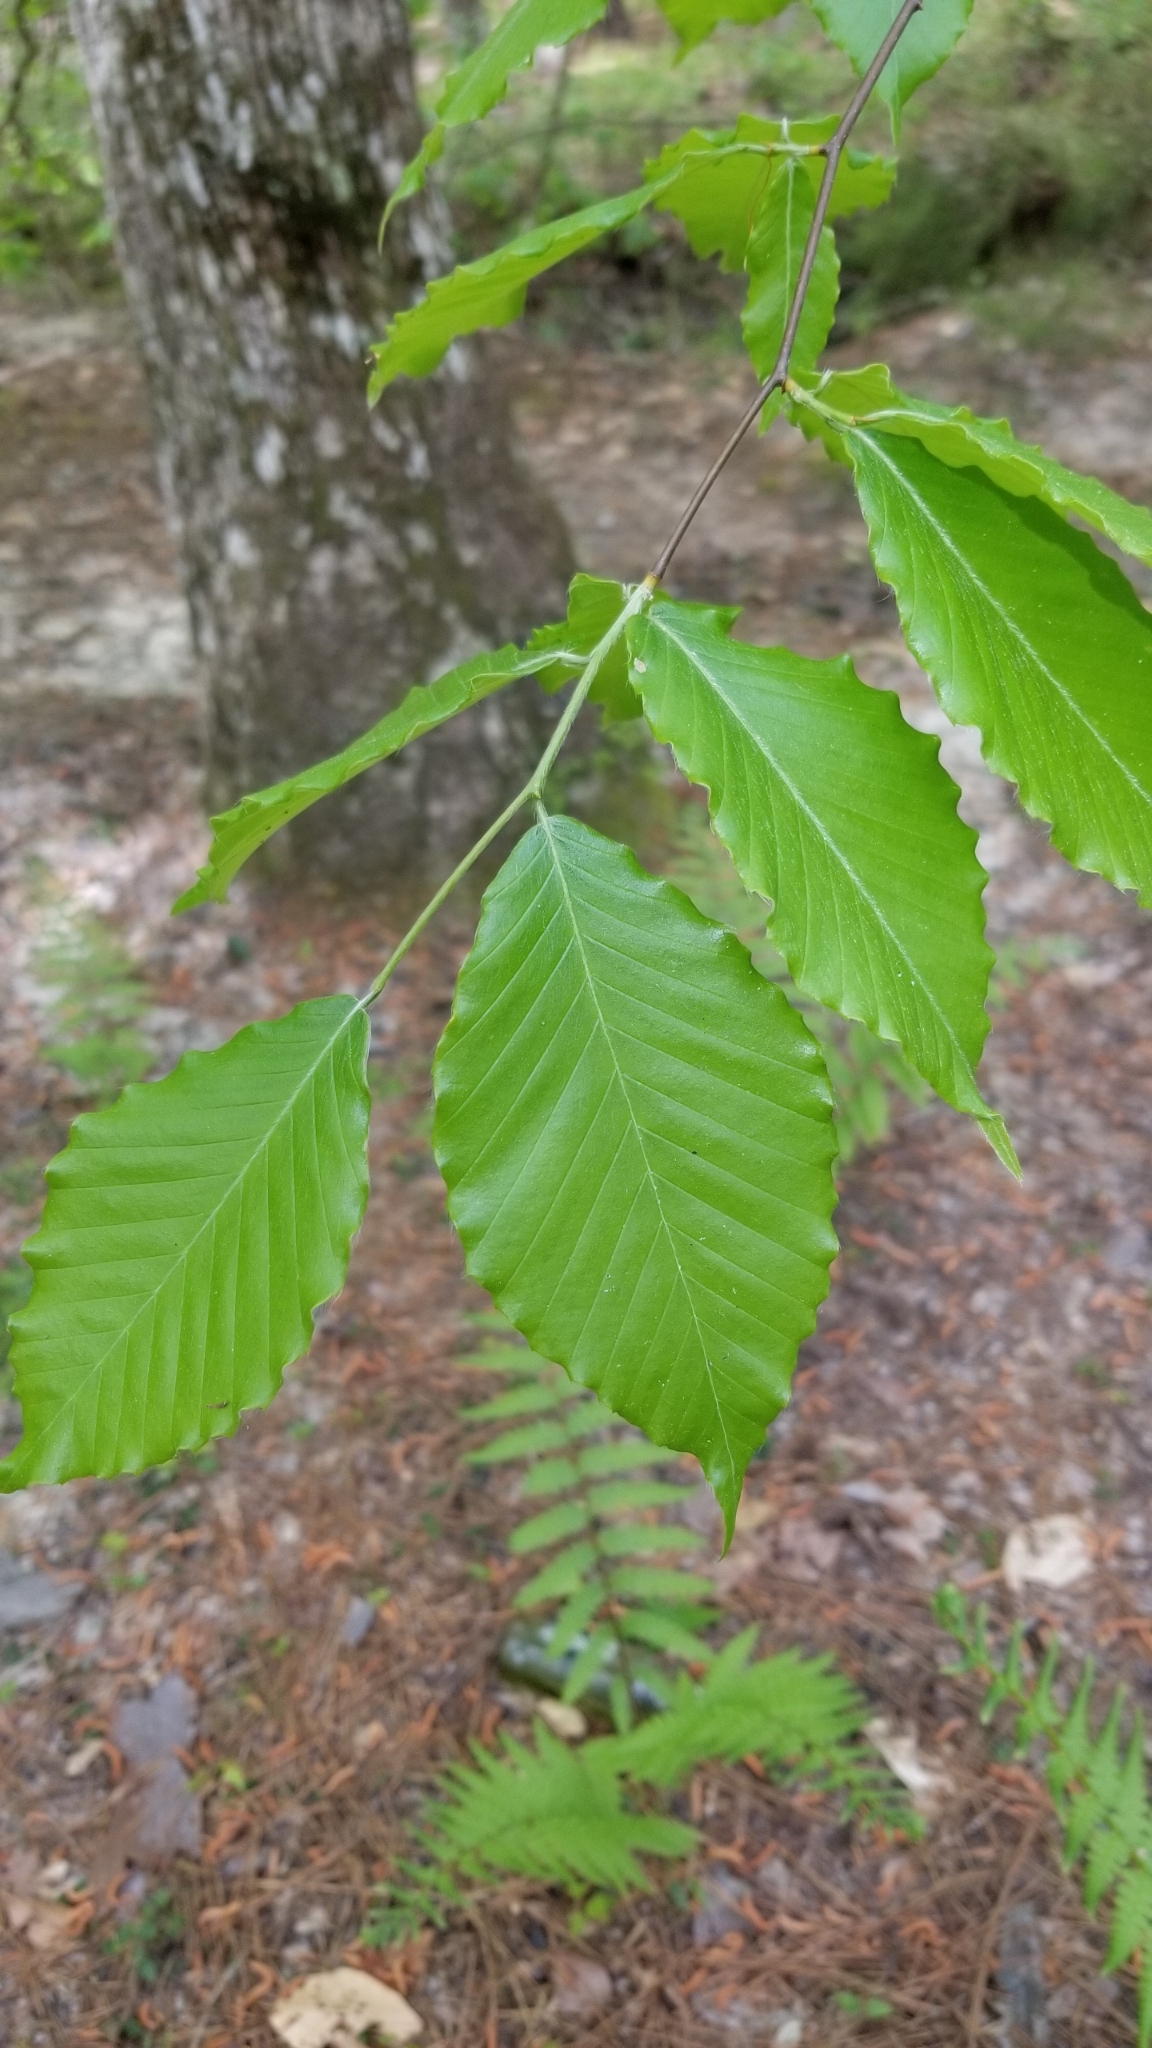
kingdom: Plantae
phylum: Tracheophyta
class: Magnoliopsida
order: Fagales
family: Fagaceae
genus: Fagus
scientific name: Fagus grandifolia
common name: American beech
